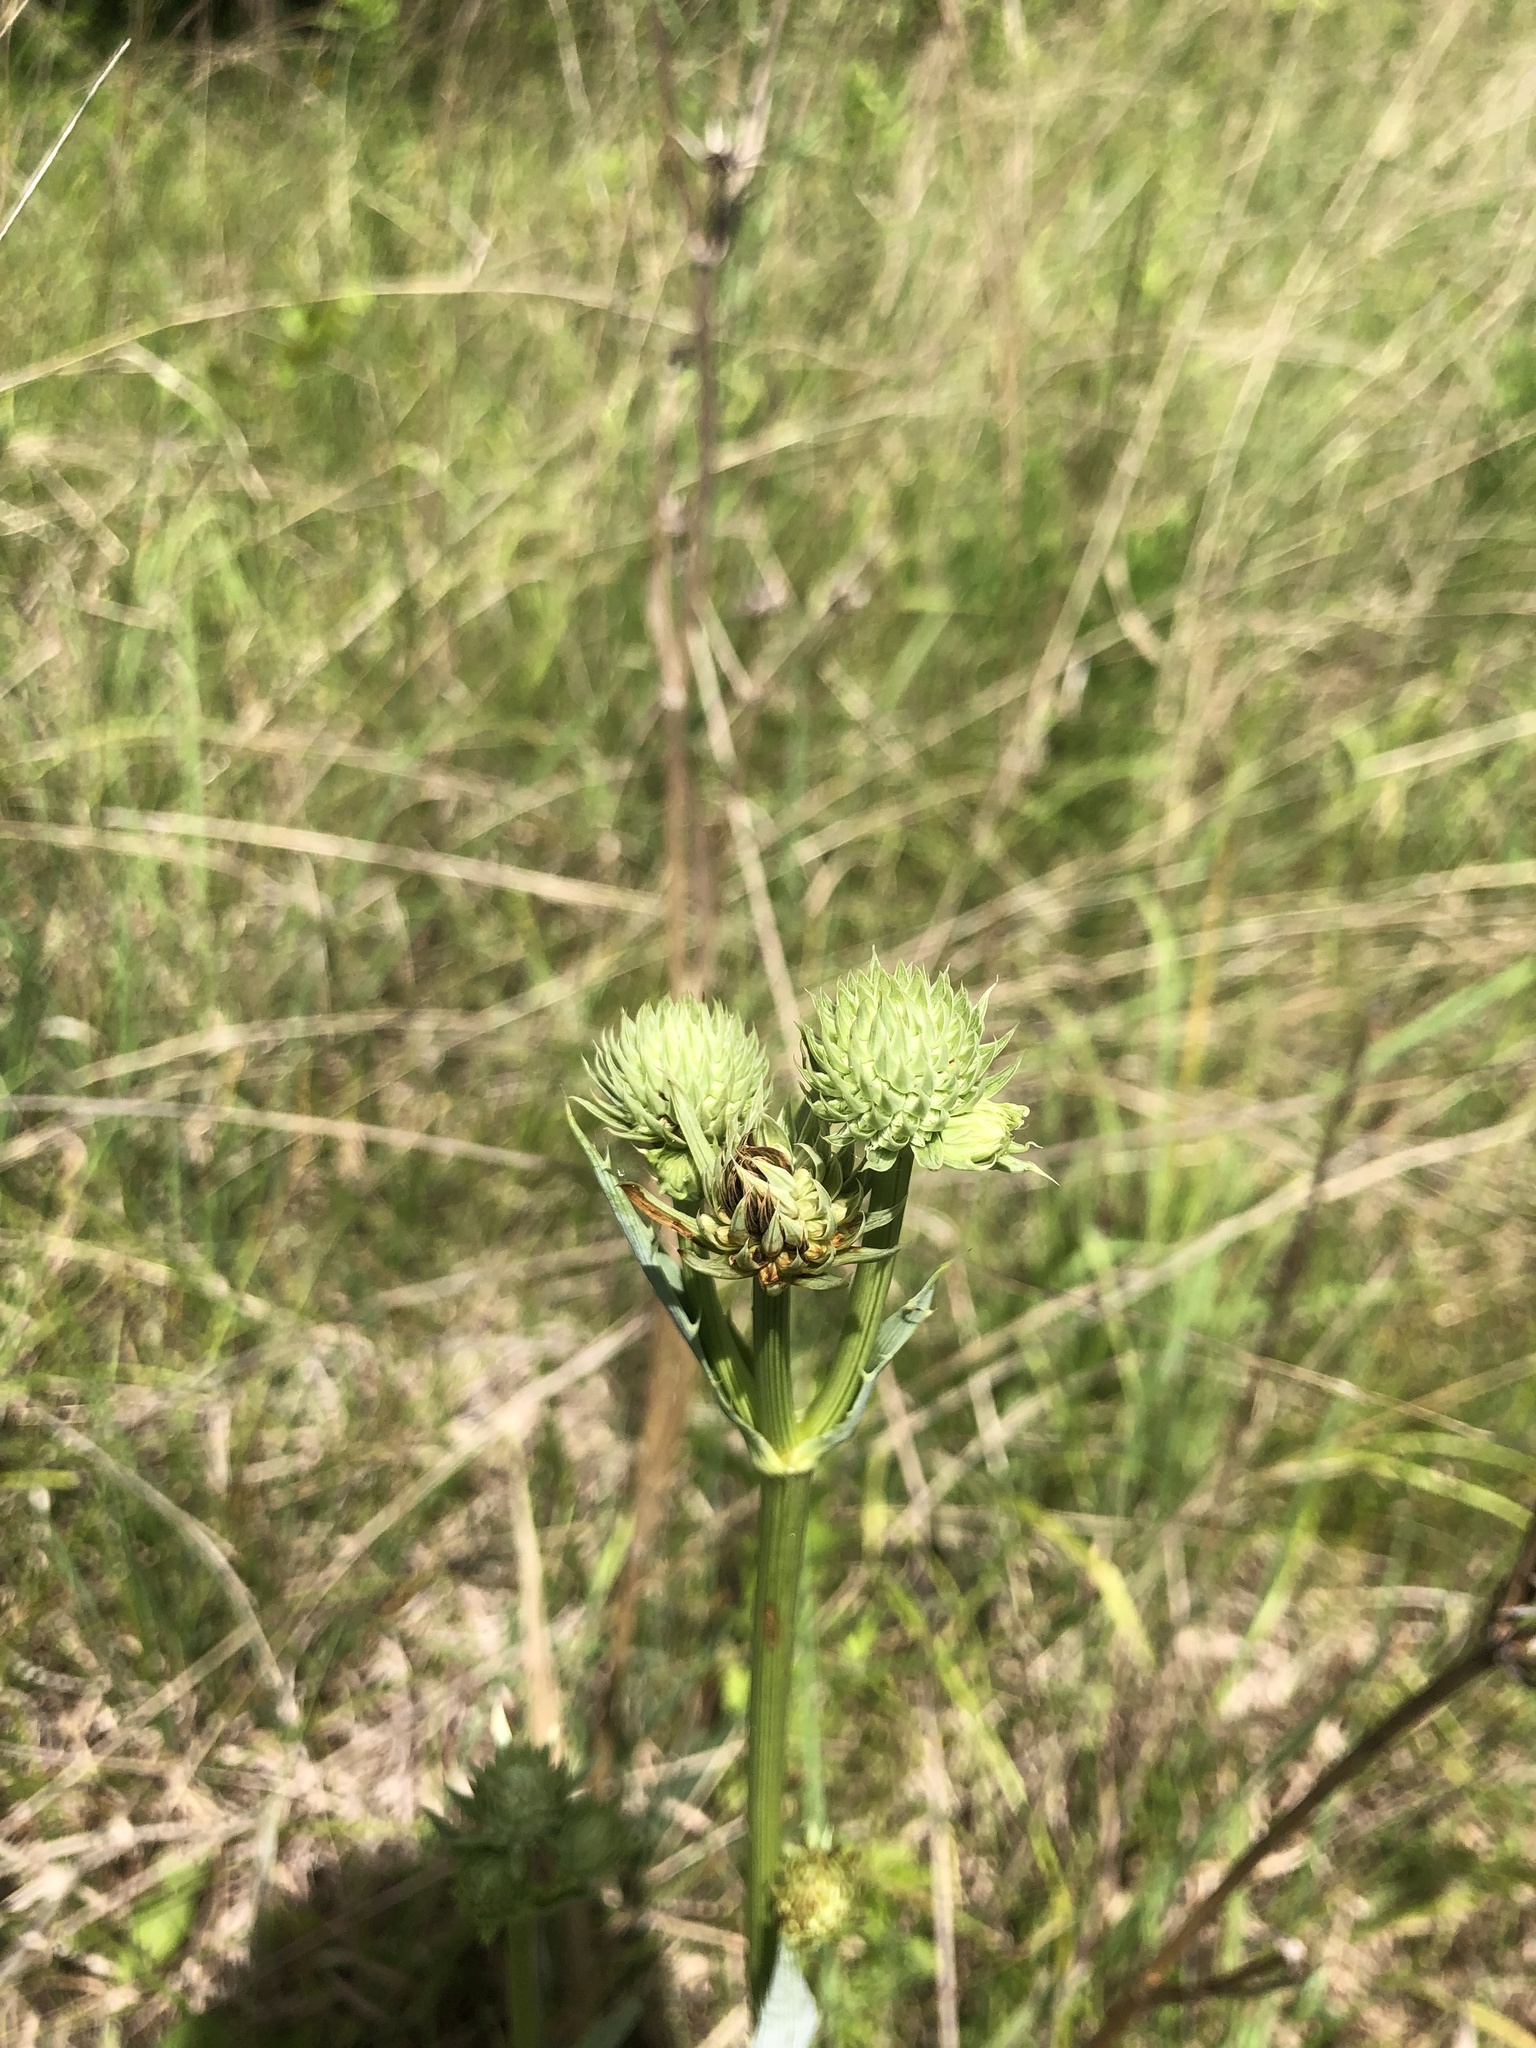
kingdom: Plantae
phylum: Tracheophyta
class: Magnoliopsida
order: Apiales
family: Apiaceae
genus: Eryngium
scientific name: Eryngium yuccifolium
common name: Button eryngo
